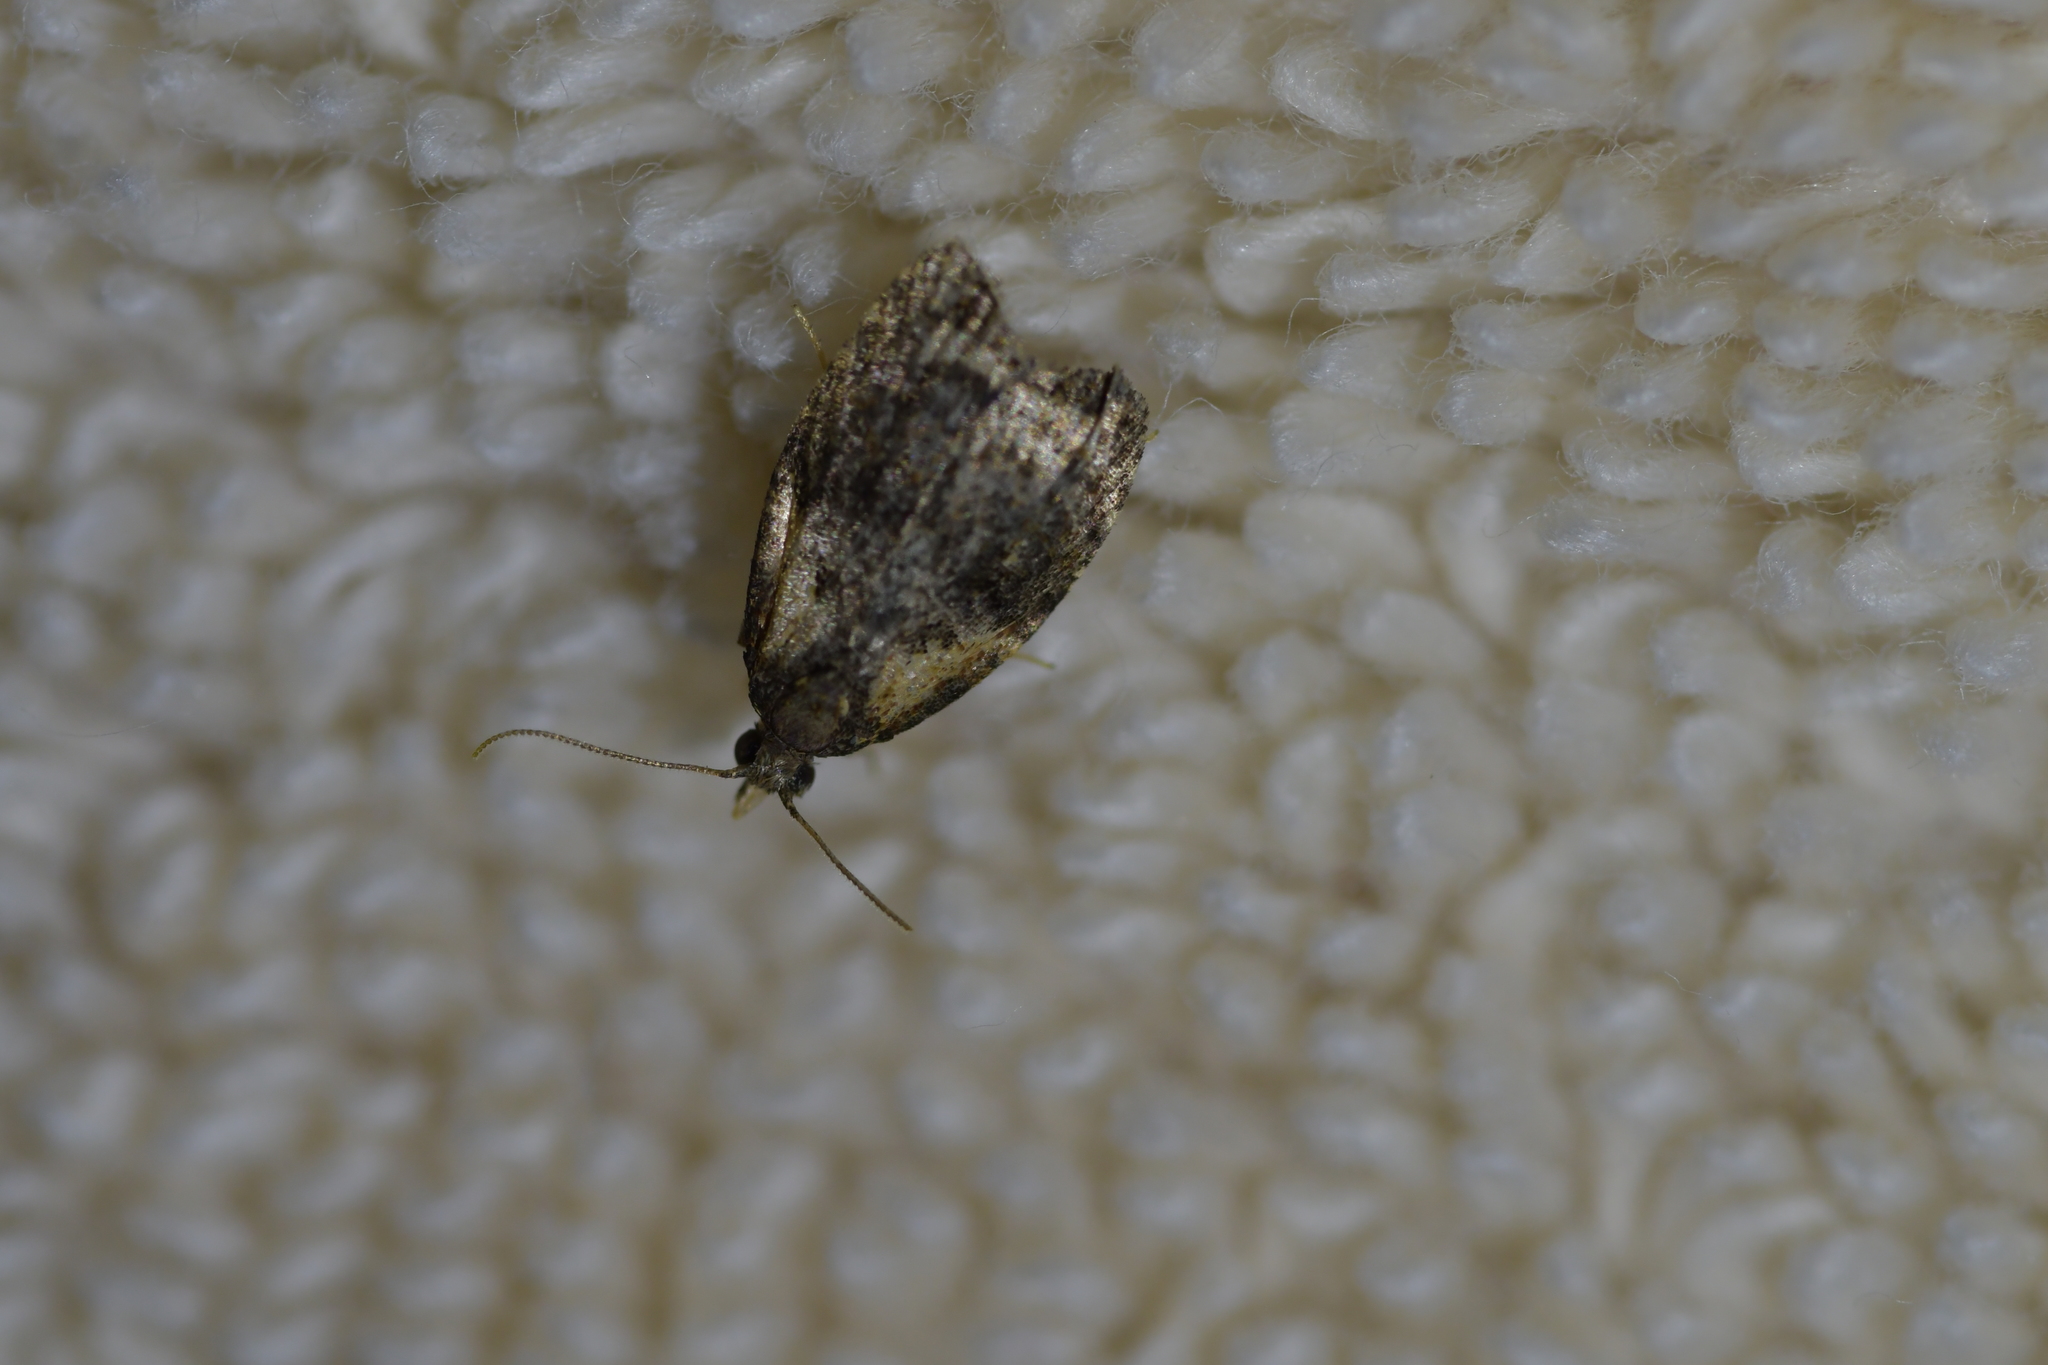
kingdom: Animalia
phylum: Arthropoda
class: Insecta
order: Lepidoptera
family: Tortricidae
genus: Capua
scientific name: Capua intractana
